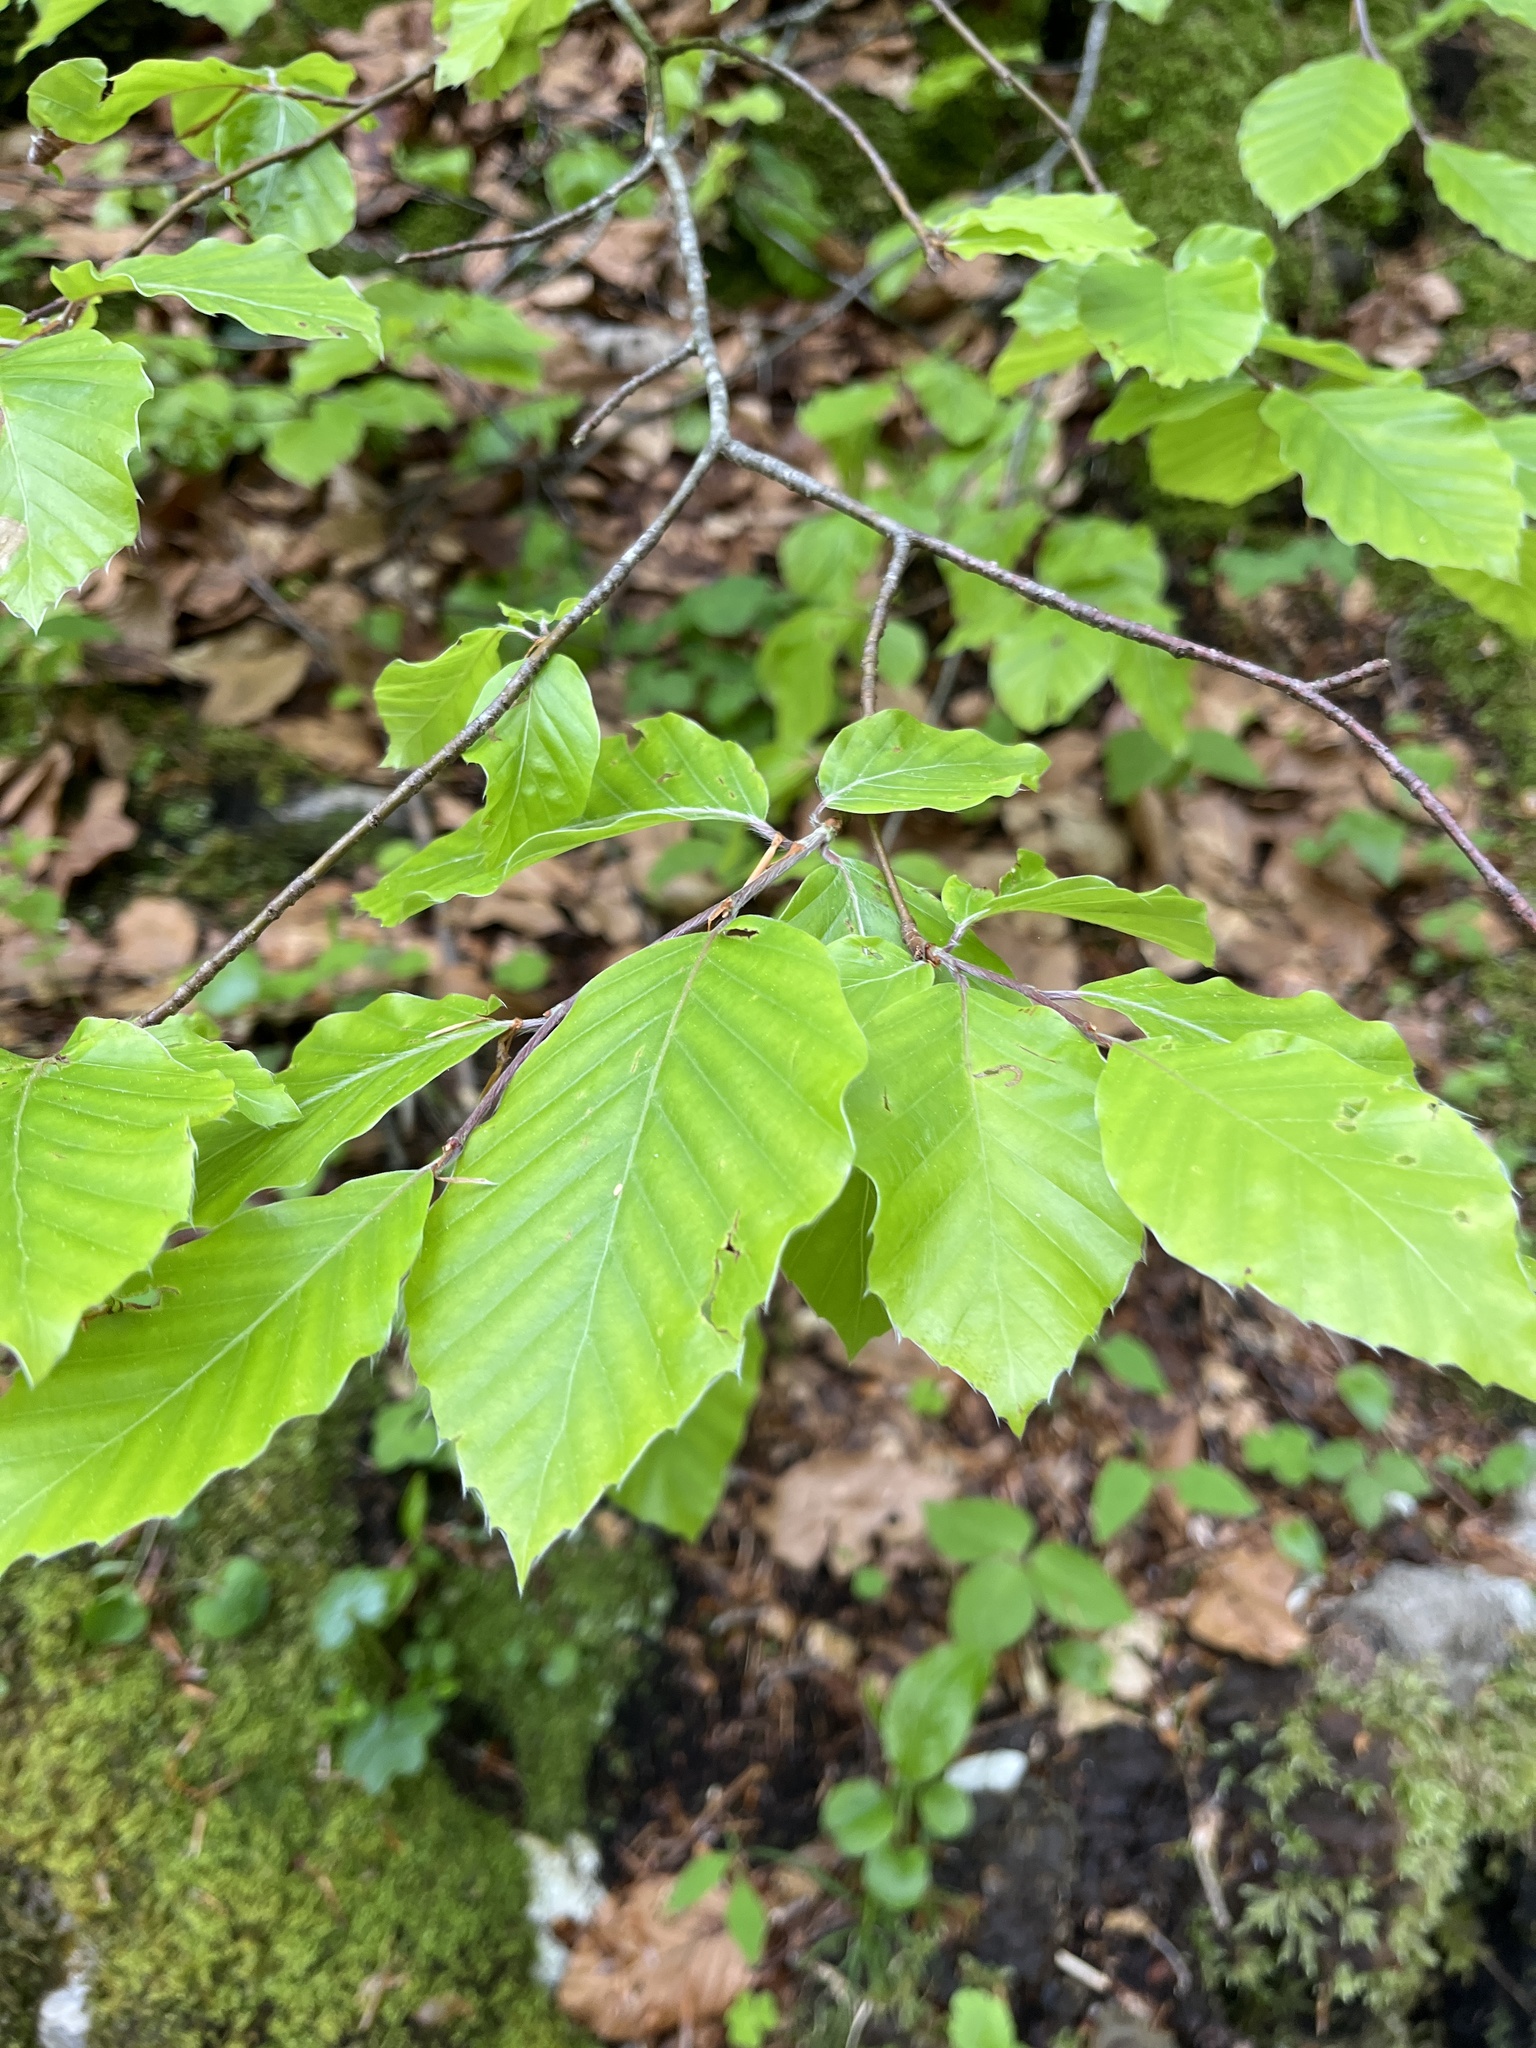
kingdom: Plantae
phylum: Tracheophyta
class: Magnoliopsida
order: Fagales
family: Fagaceae
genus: Fagus
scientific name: Fagus sylvatica
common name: Beech
